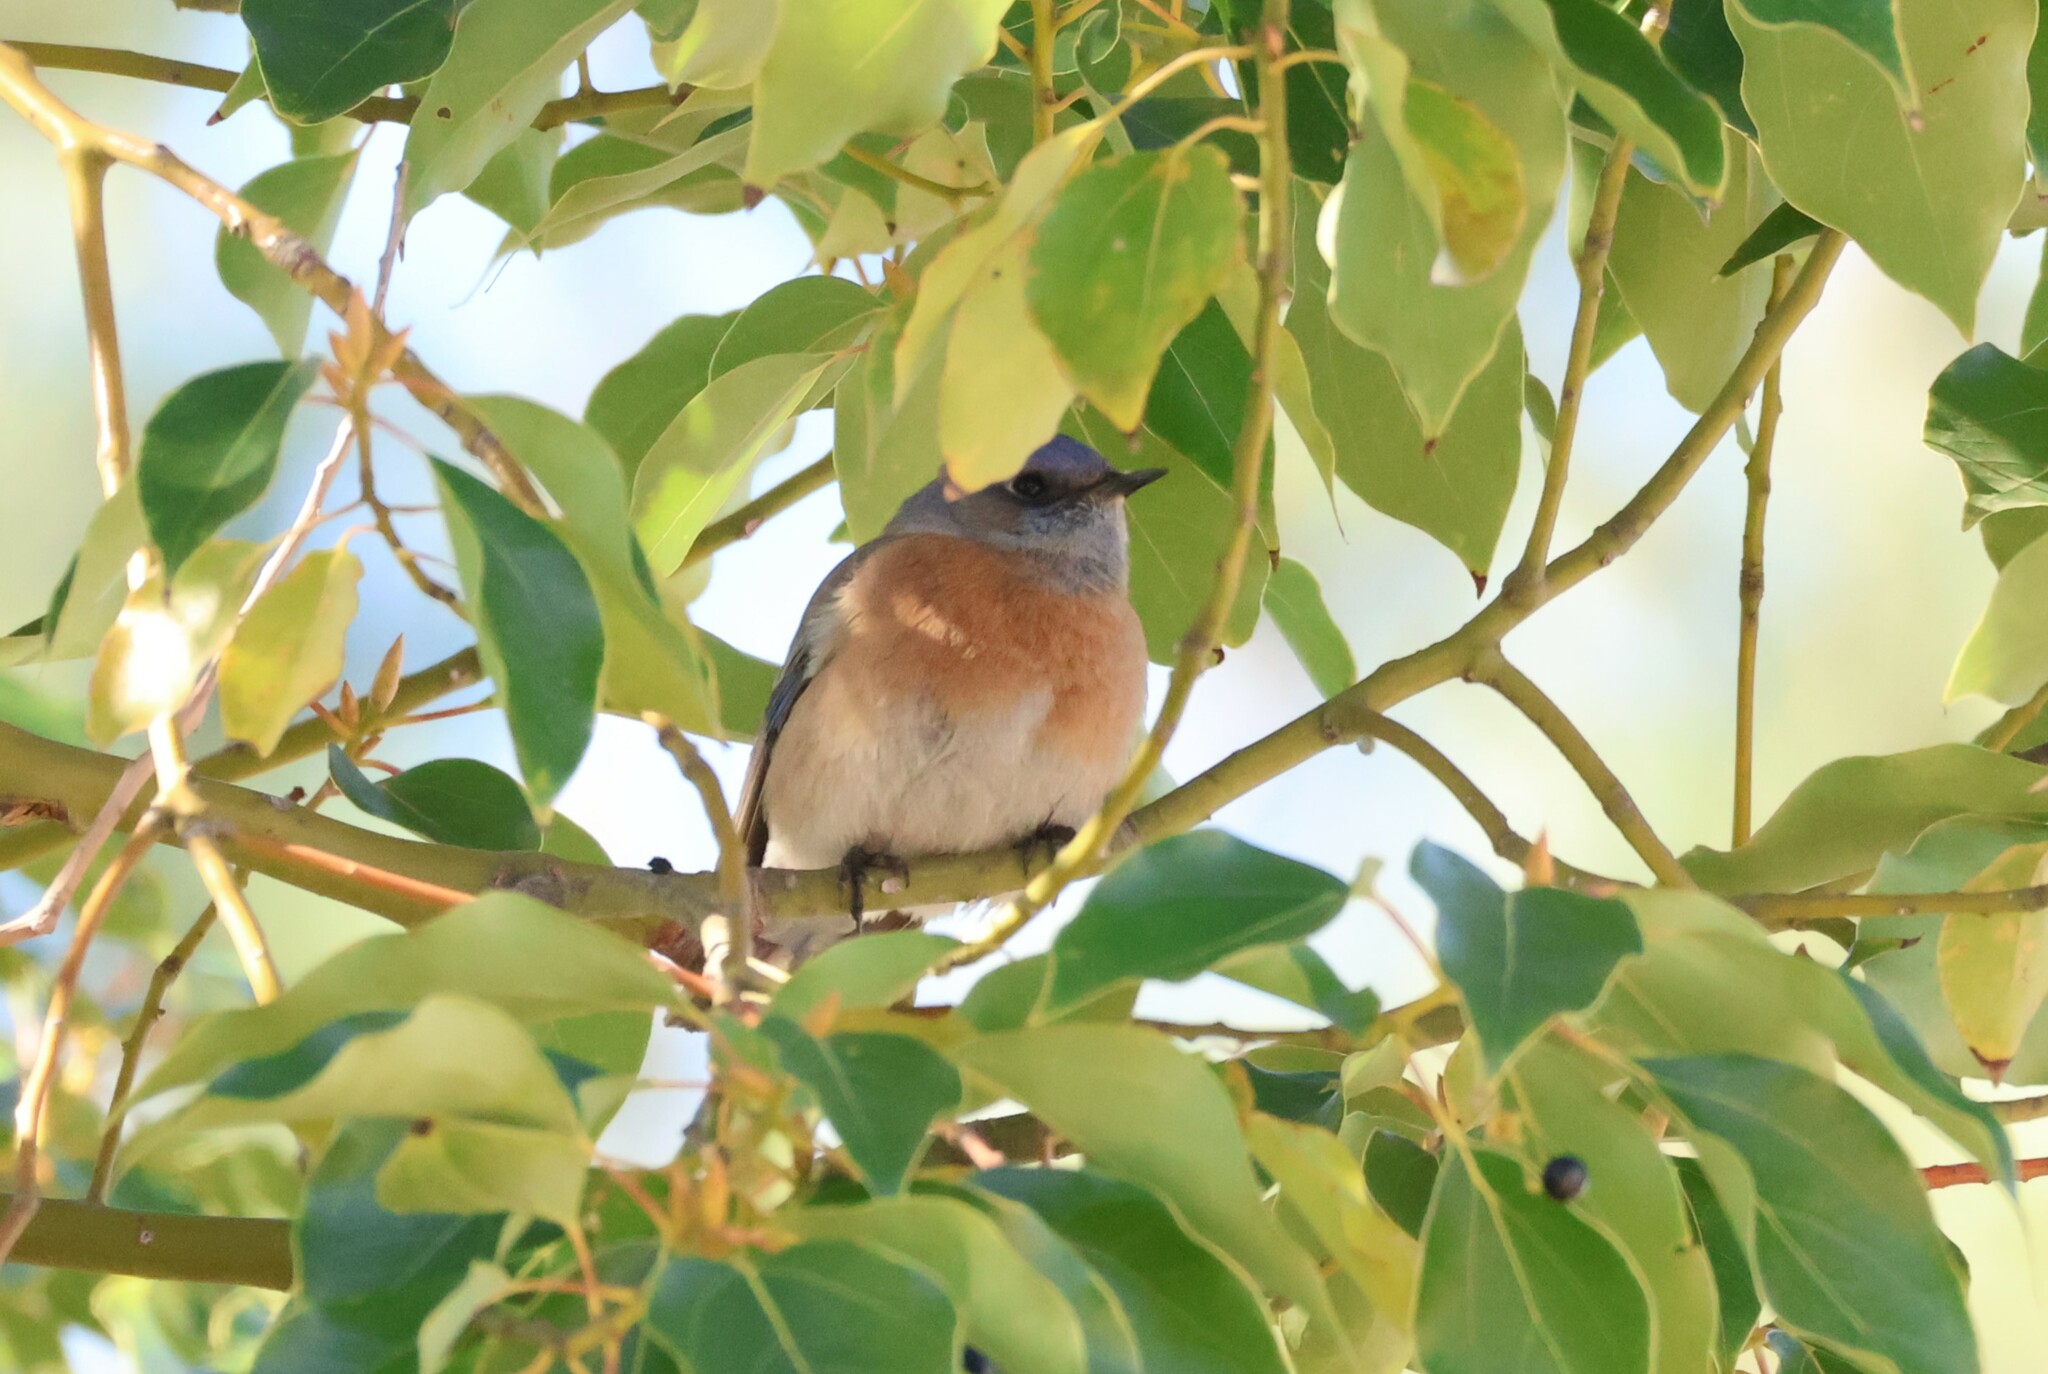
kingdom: Animalia
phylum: Chordata
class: Aves
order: Passeriformes
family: Turdidae
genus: Sialia
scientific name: Sialia mexicana
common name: Western bluebird
